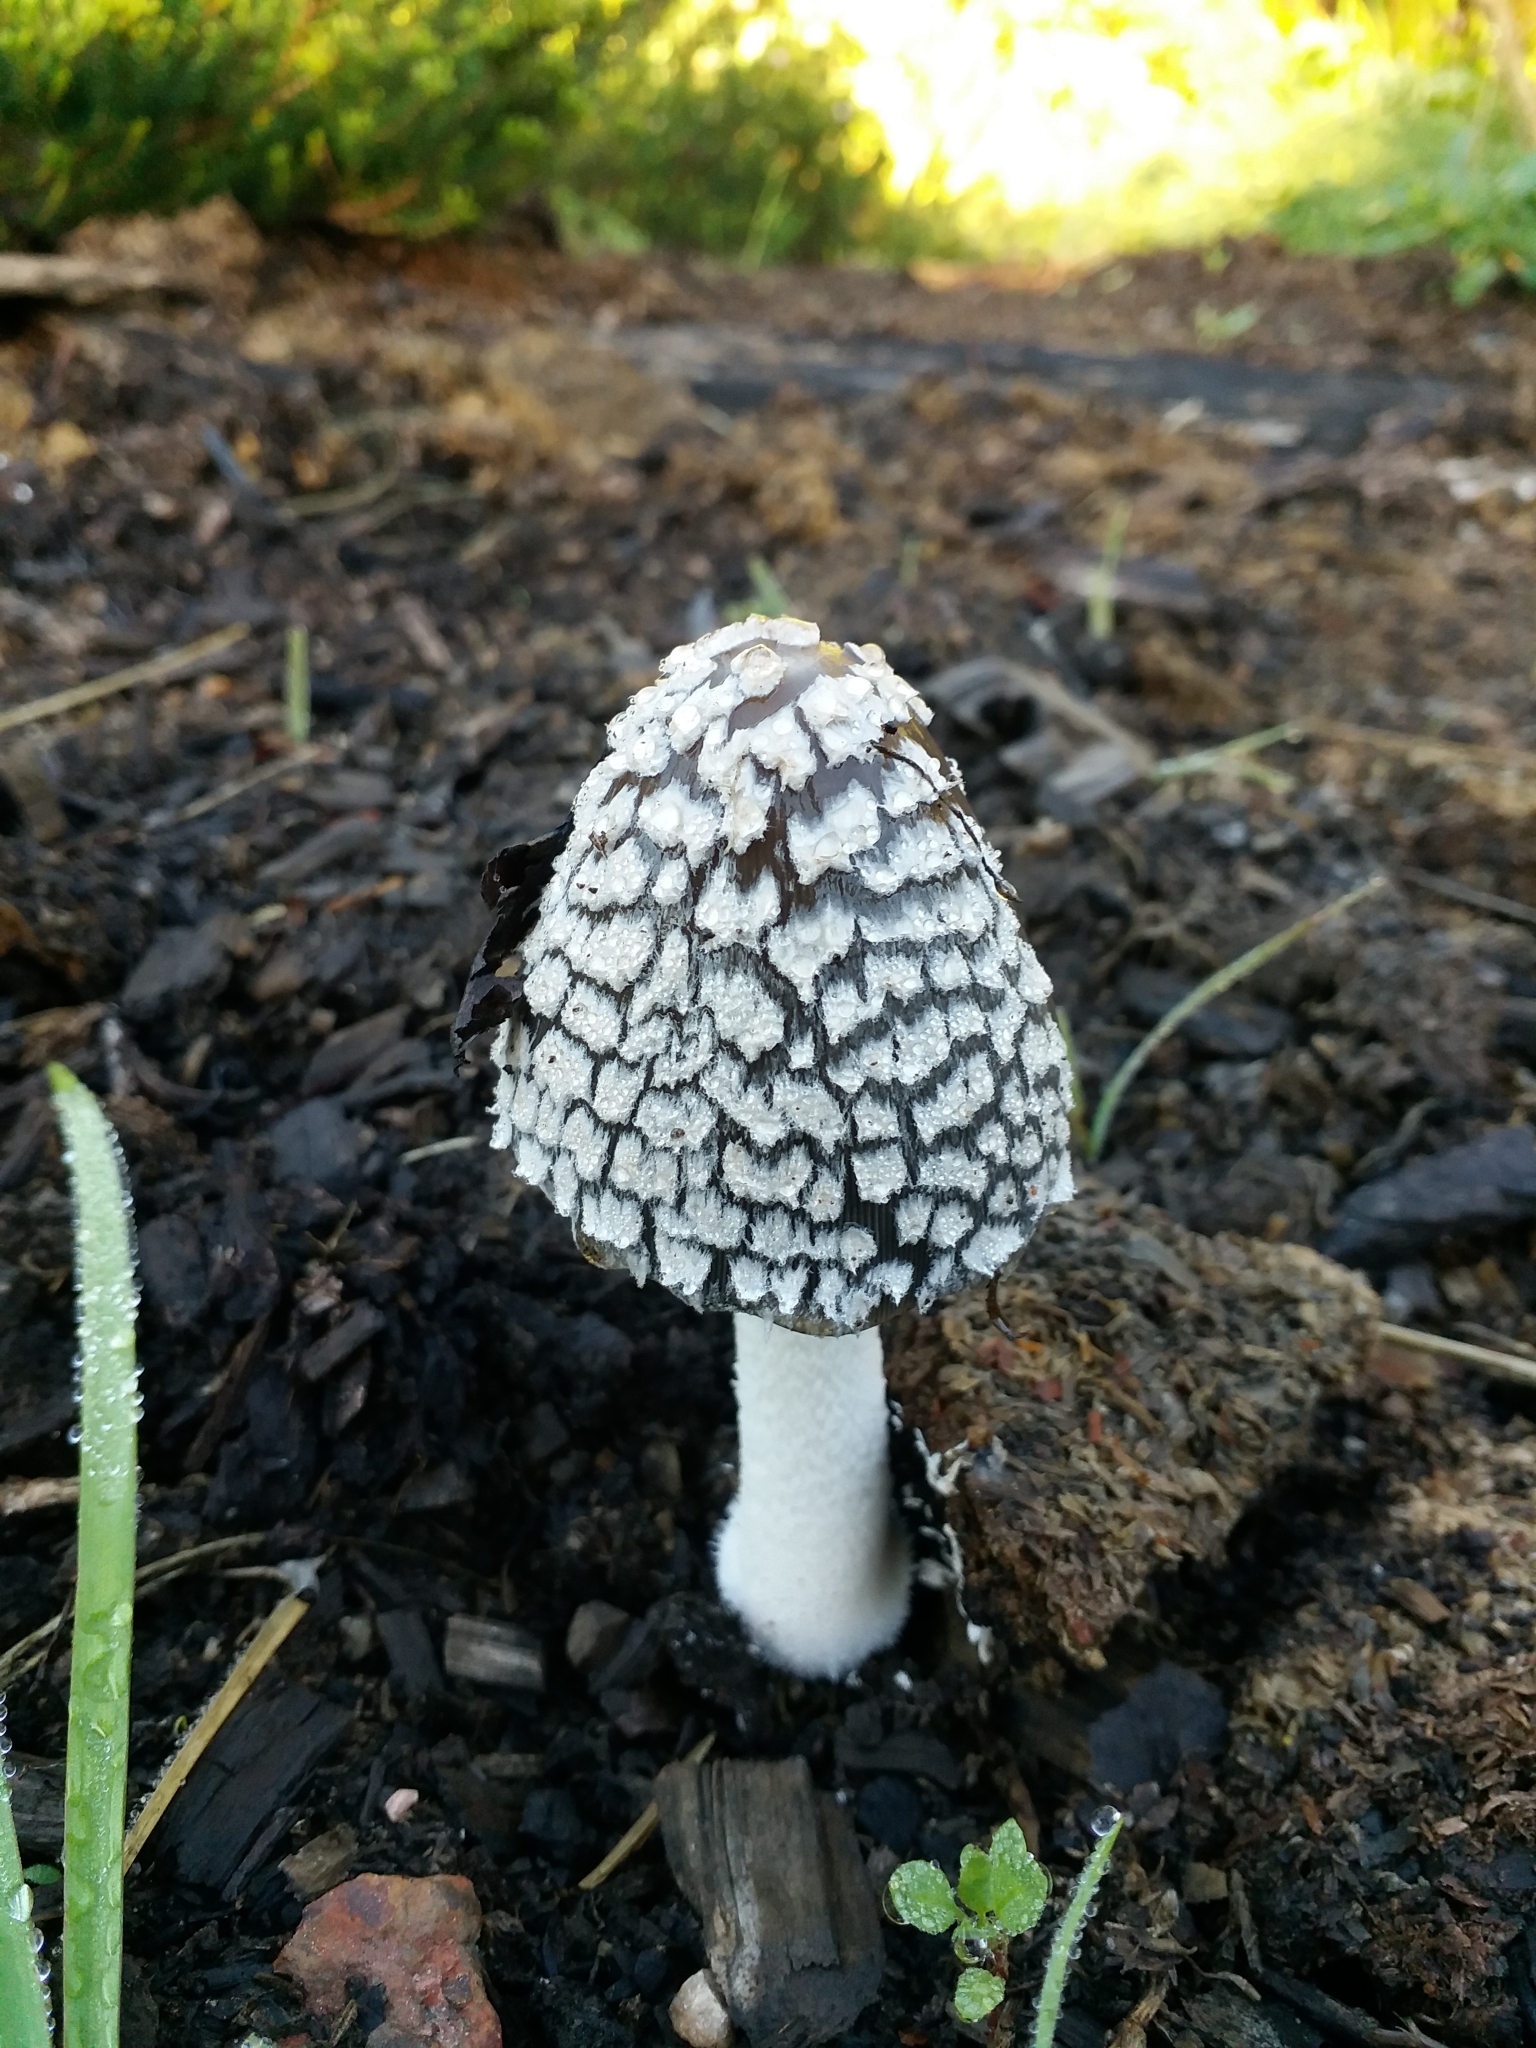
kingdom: Fungi
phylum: Basidiomycota
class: Agaricomycetes
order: Agaricales
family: Psathyrellaceae
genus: Coprinopsis
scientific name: Coprinopsis picacea
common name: Magpie inkcap
